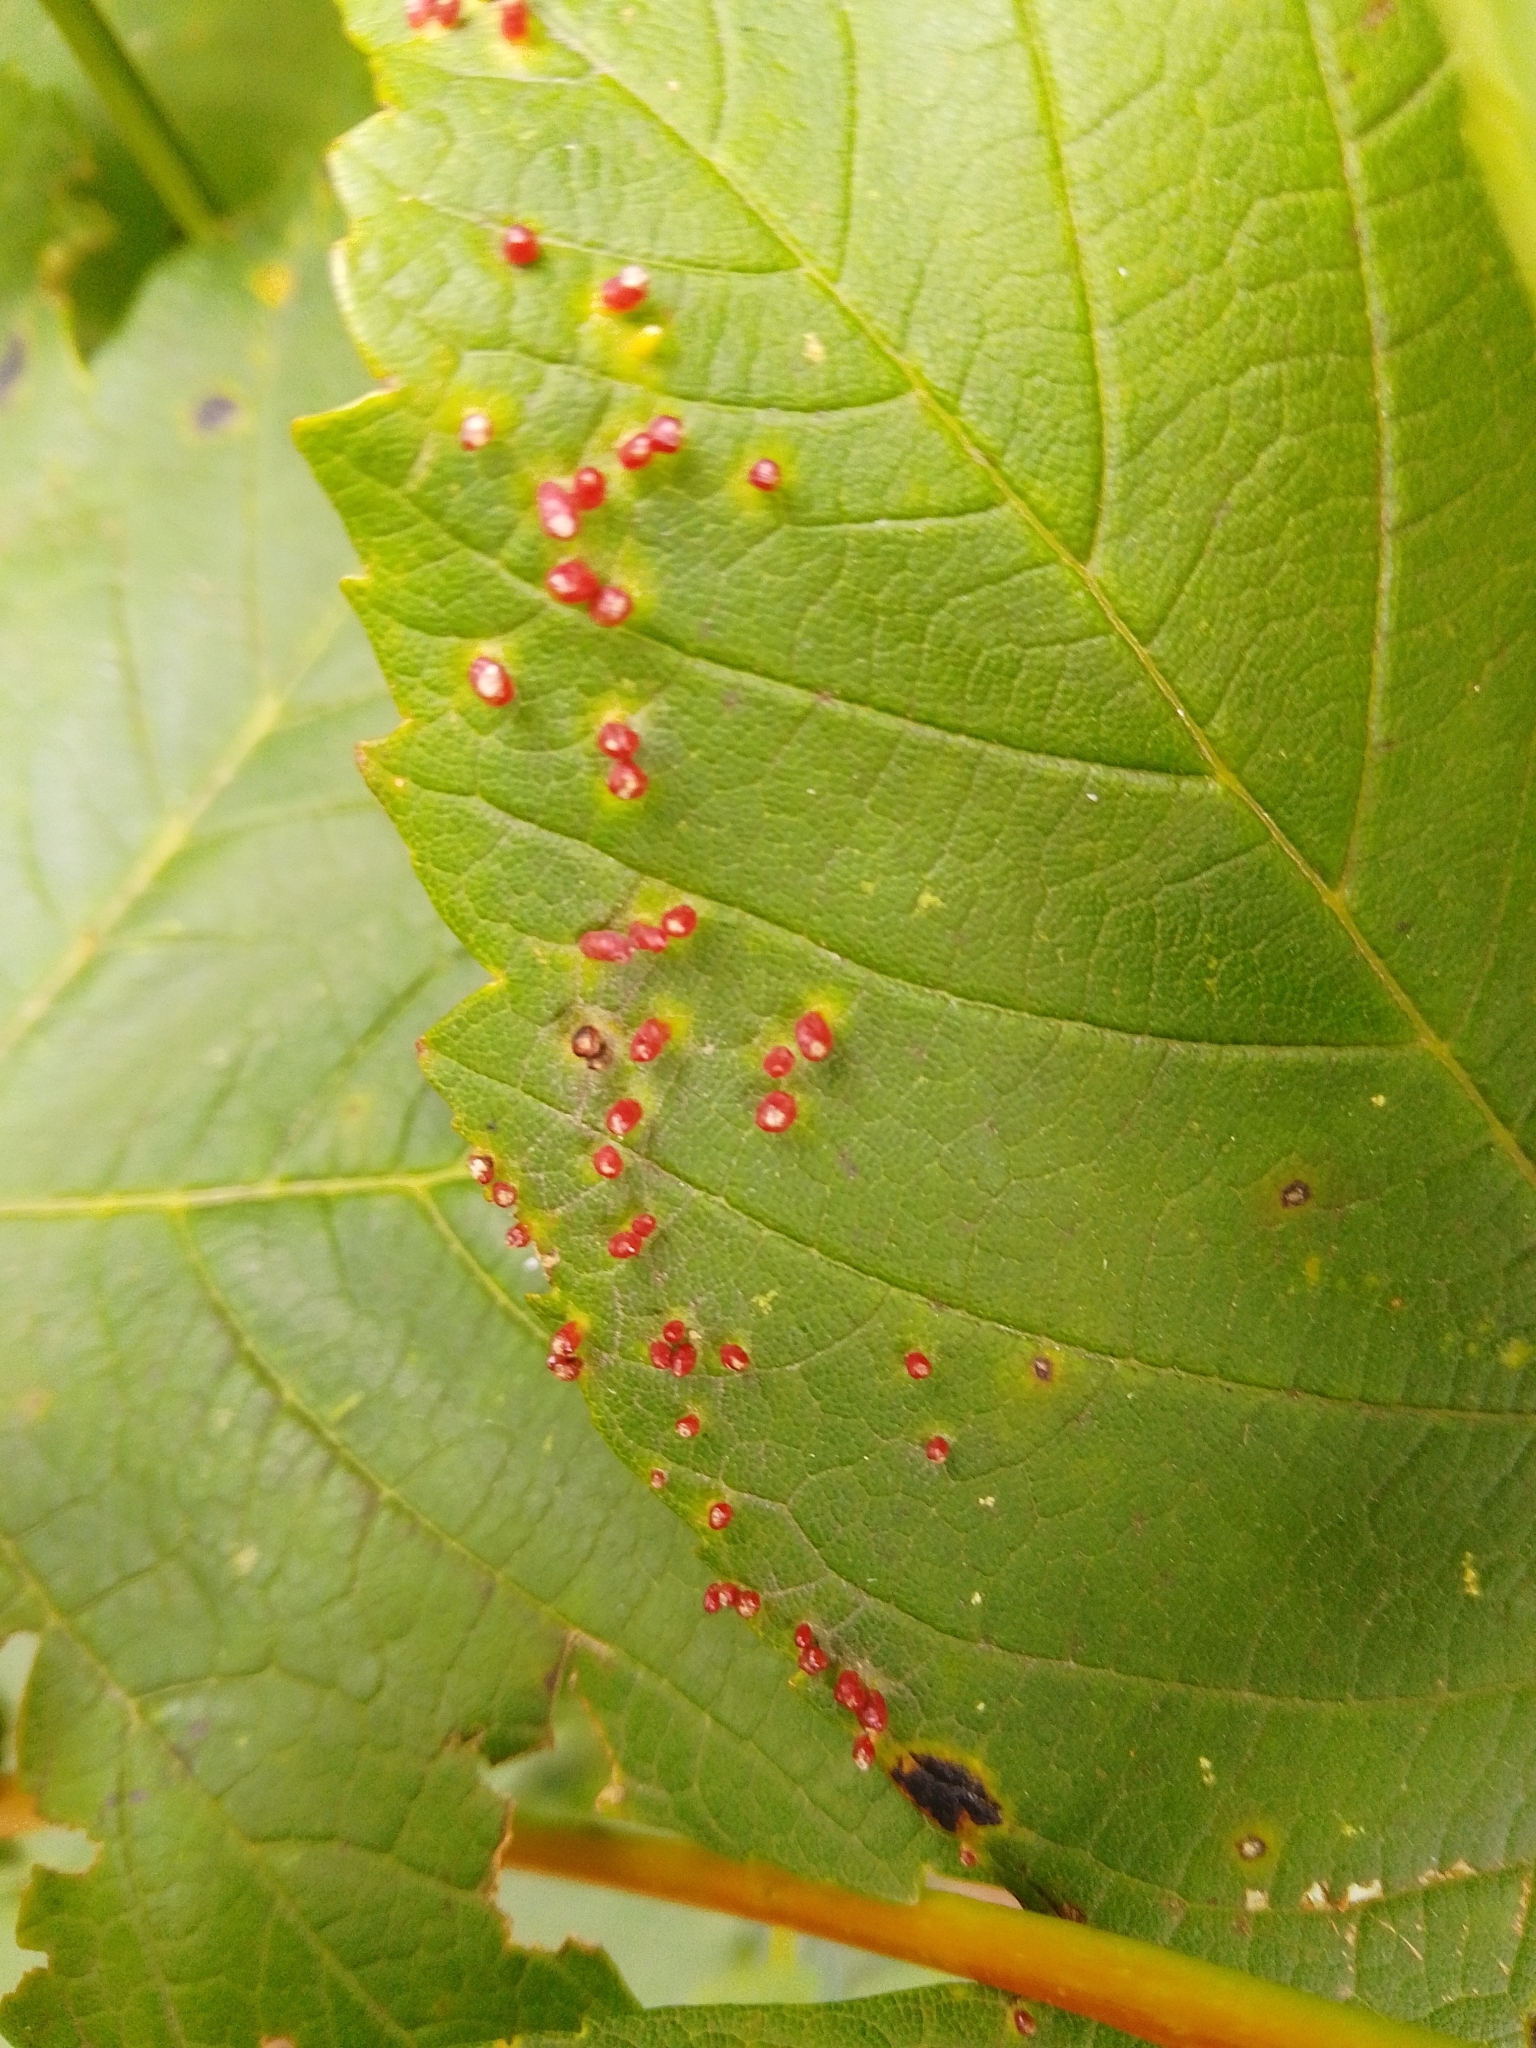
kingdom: Animalia
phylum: Arthropoda
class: Arachnida
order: Trombidiformes
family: Eriophyidae
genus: Aceria
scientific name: Aceria cephaloneus
